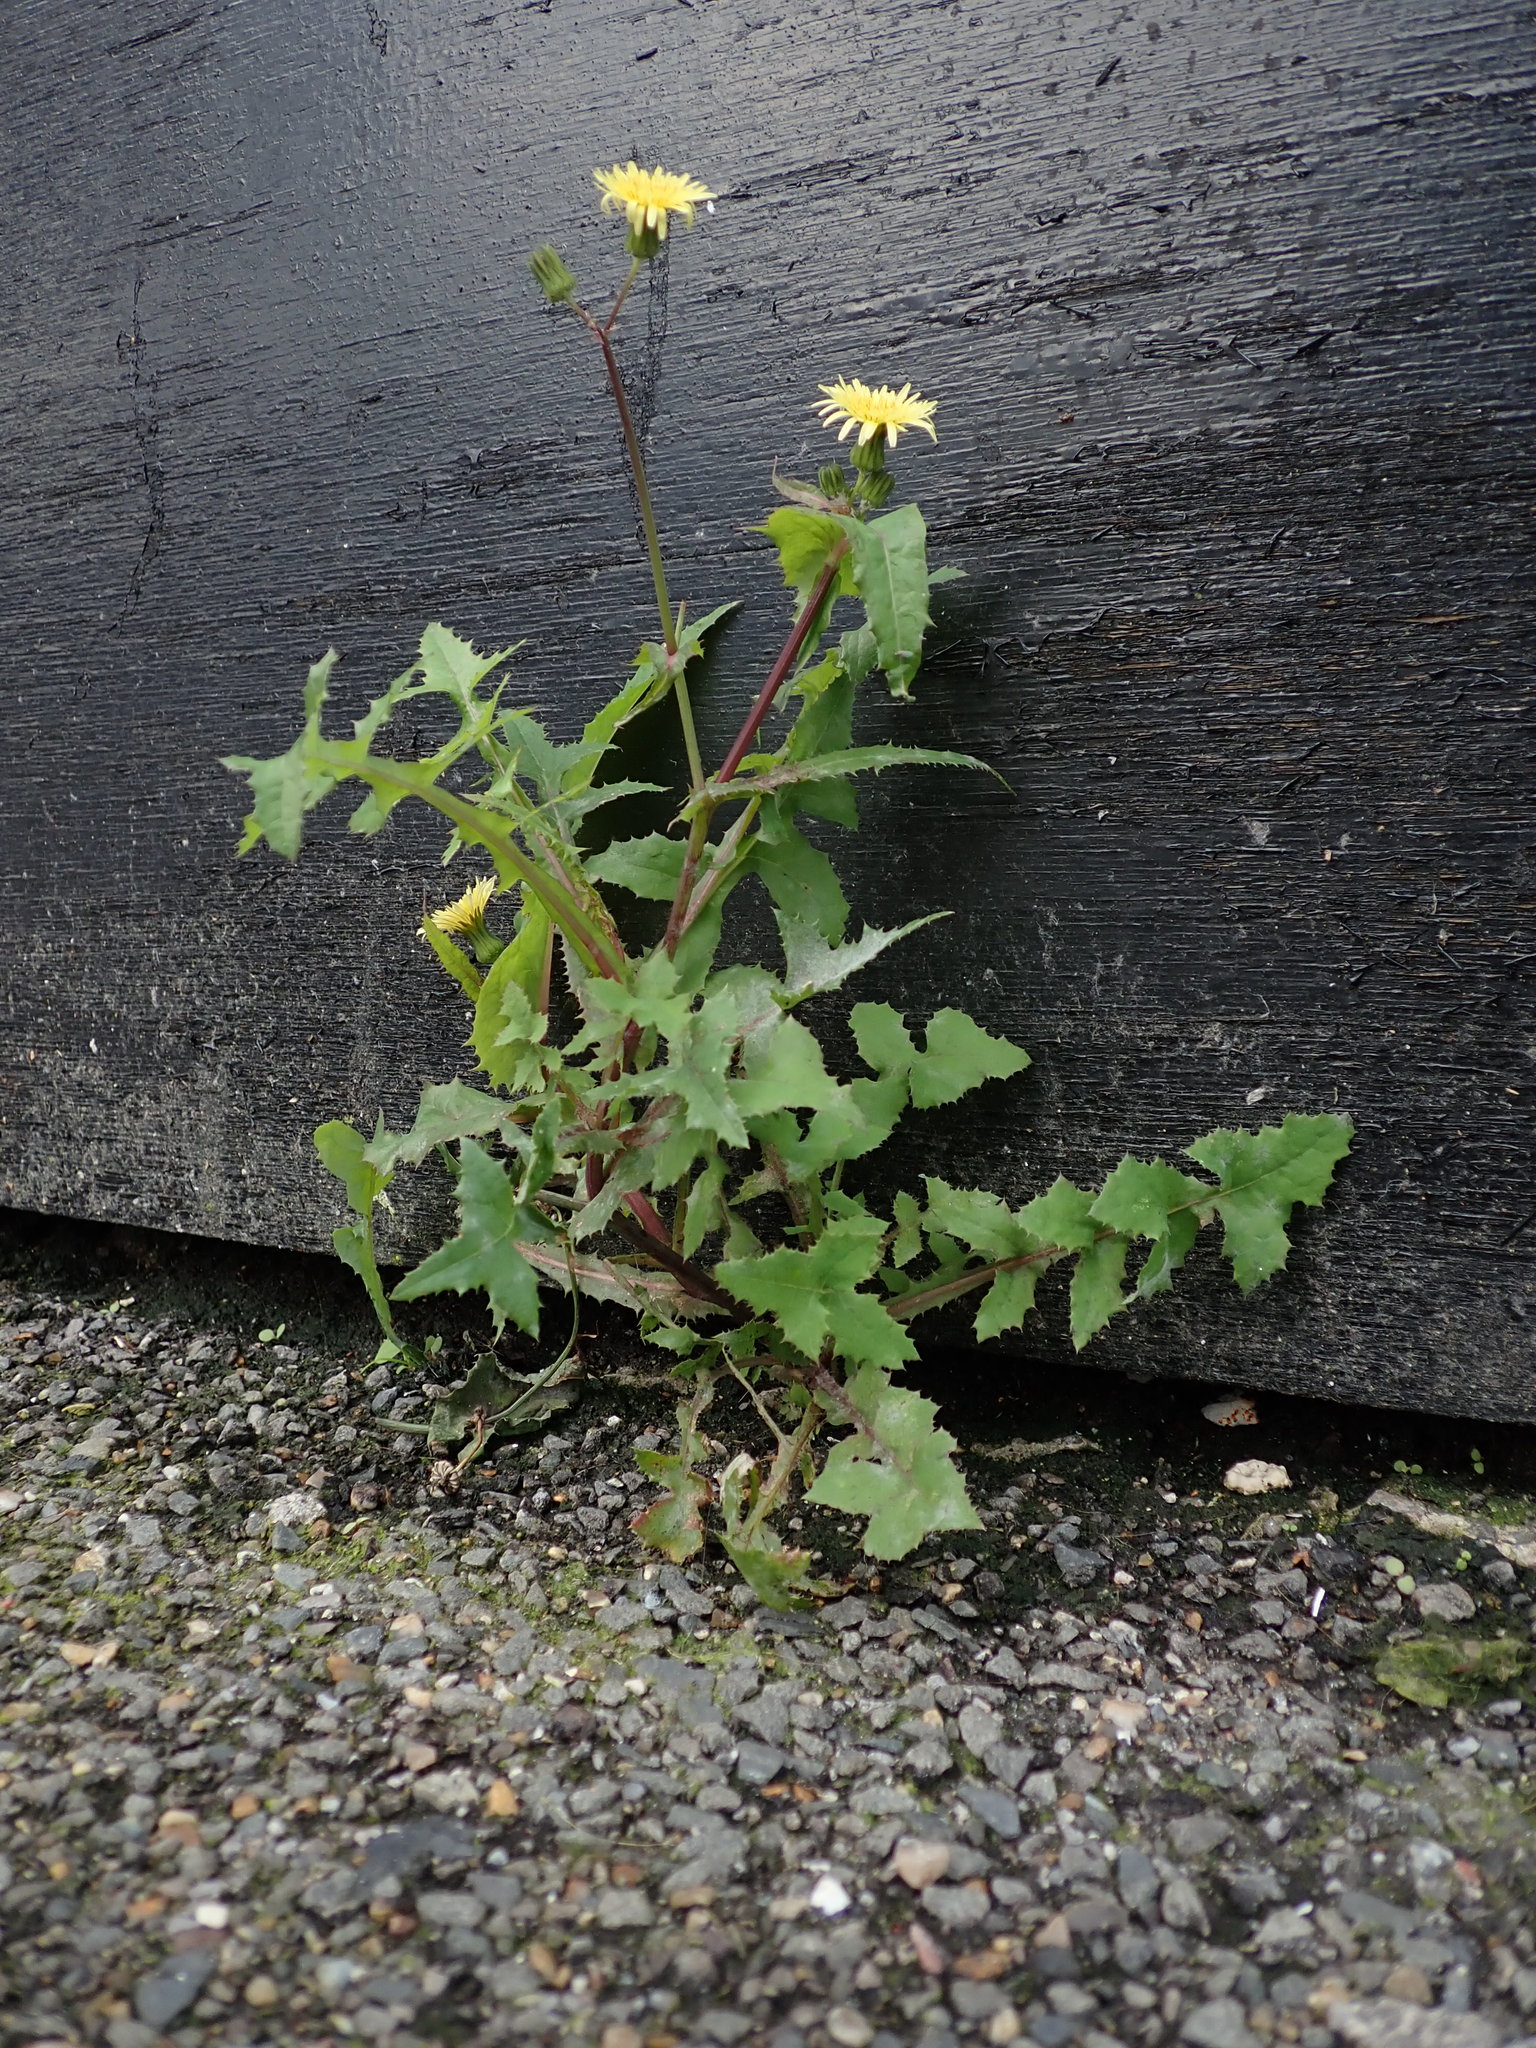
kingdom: Plantae
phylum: Tracheophyta
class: Magnoliopsida
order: Asterales
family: Asteraceae
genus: Sonchus
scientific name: Sonchus oleraceus
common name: Common sowthistle
